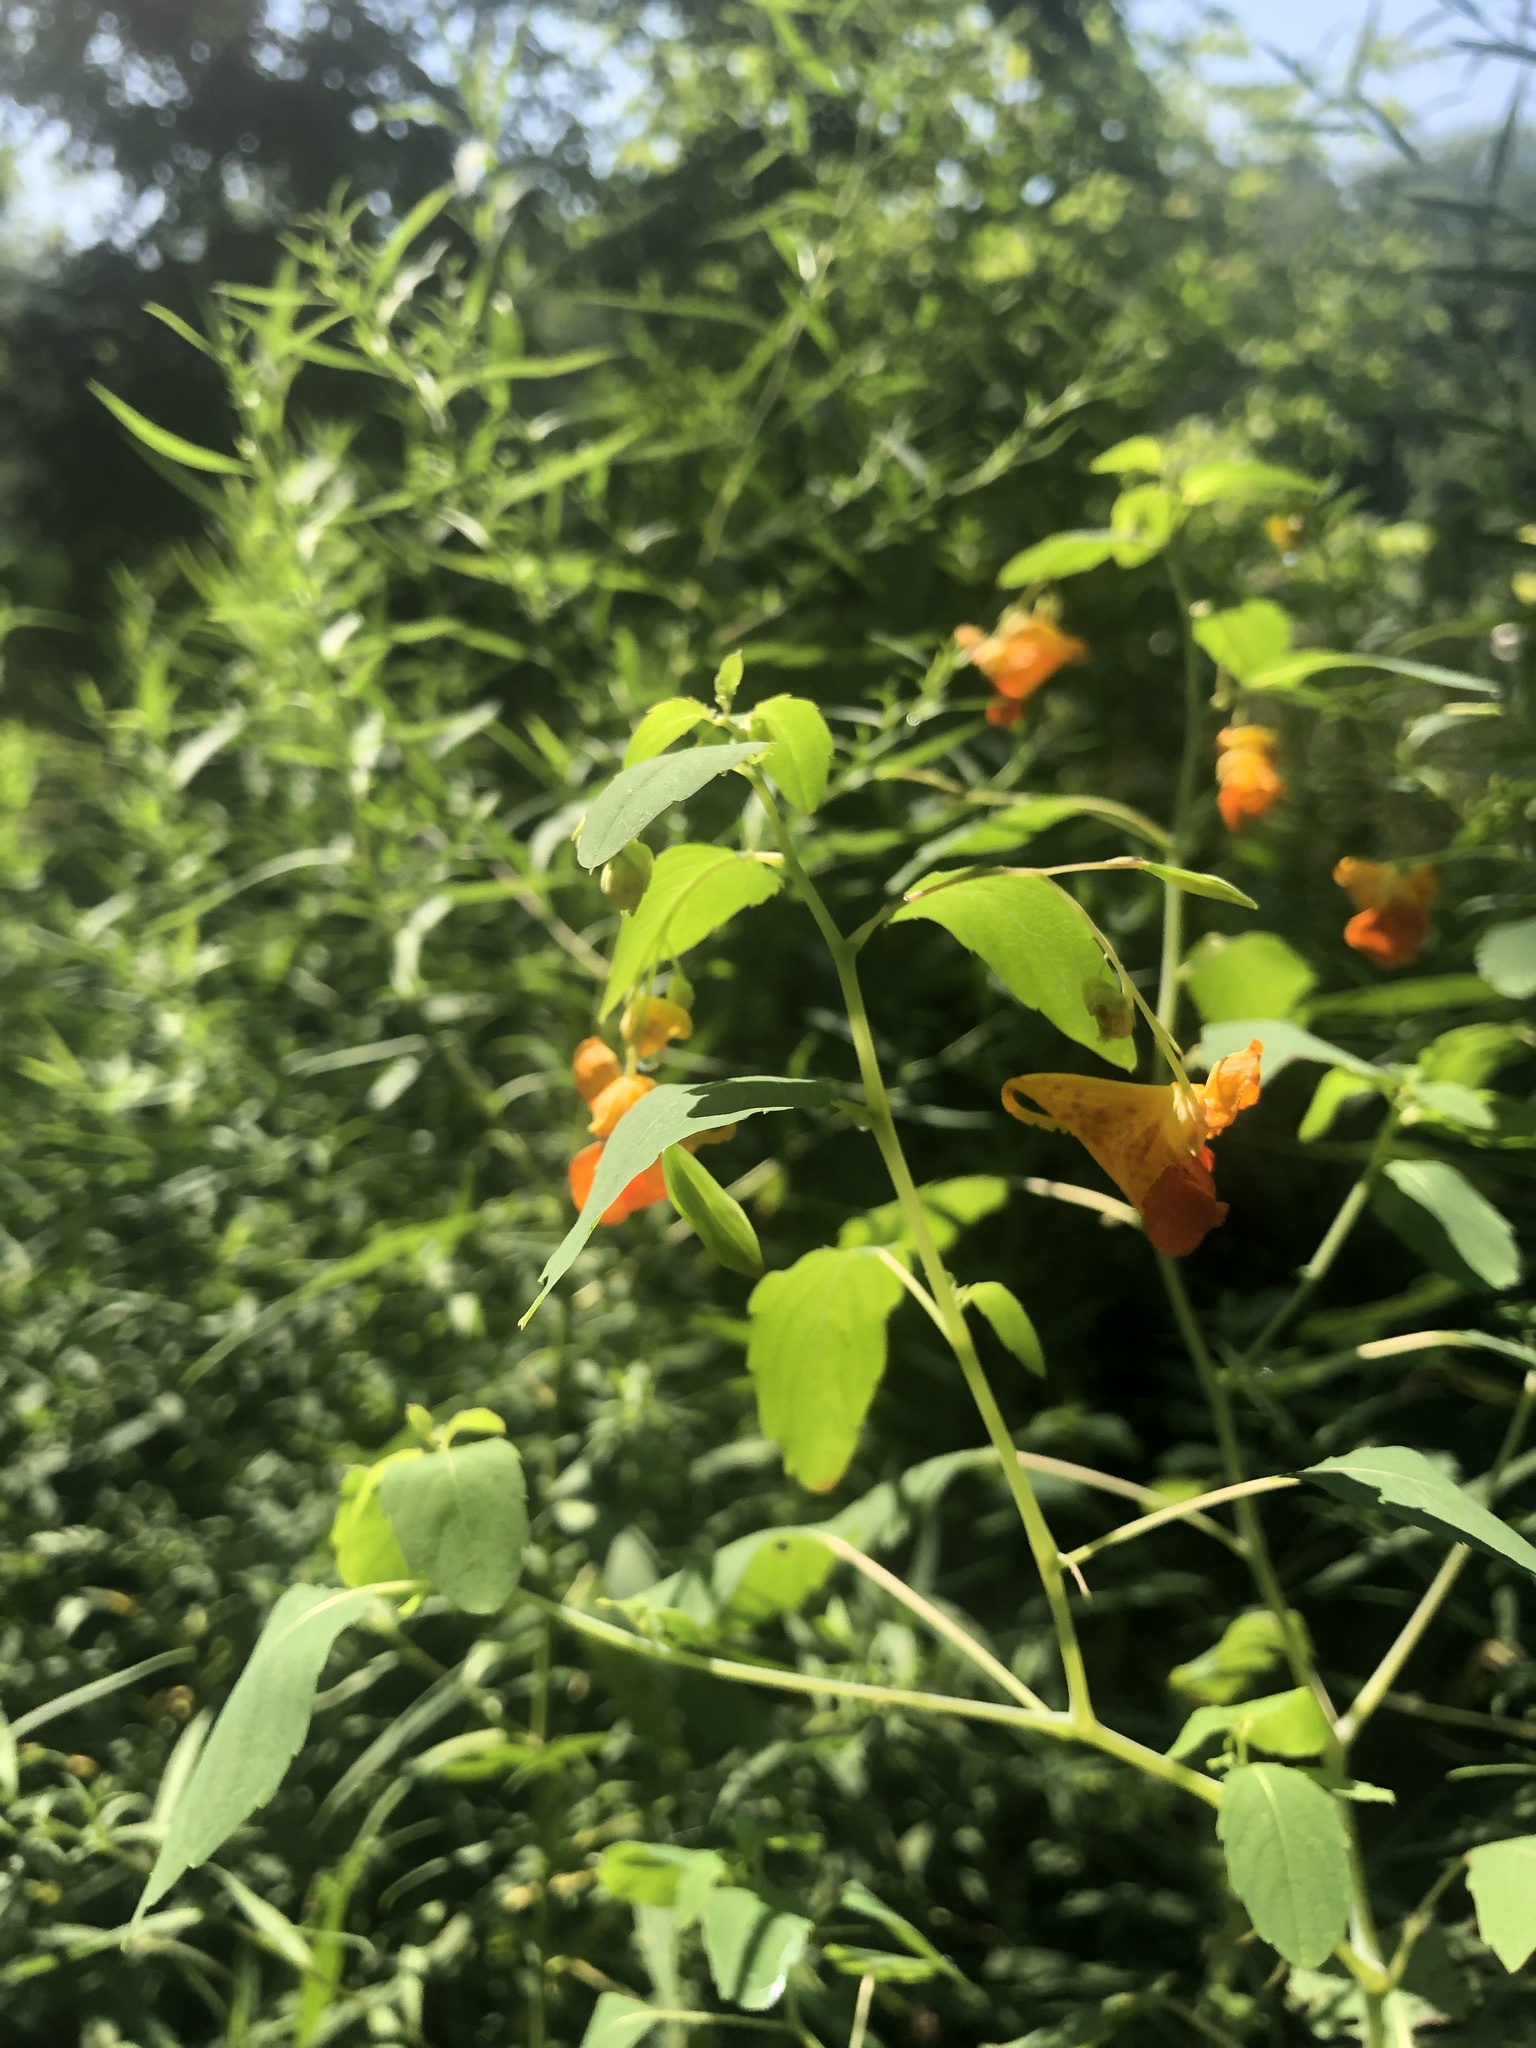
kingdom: Plantae
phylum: Tracheophyta
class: Magnoliopsida
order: Ericales
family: Balsaminaceae
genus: Impatiens
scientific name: Impatiens capensis
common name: Orange balsam
